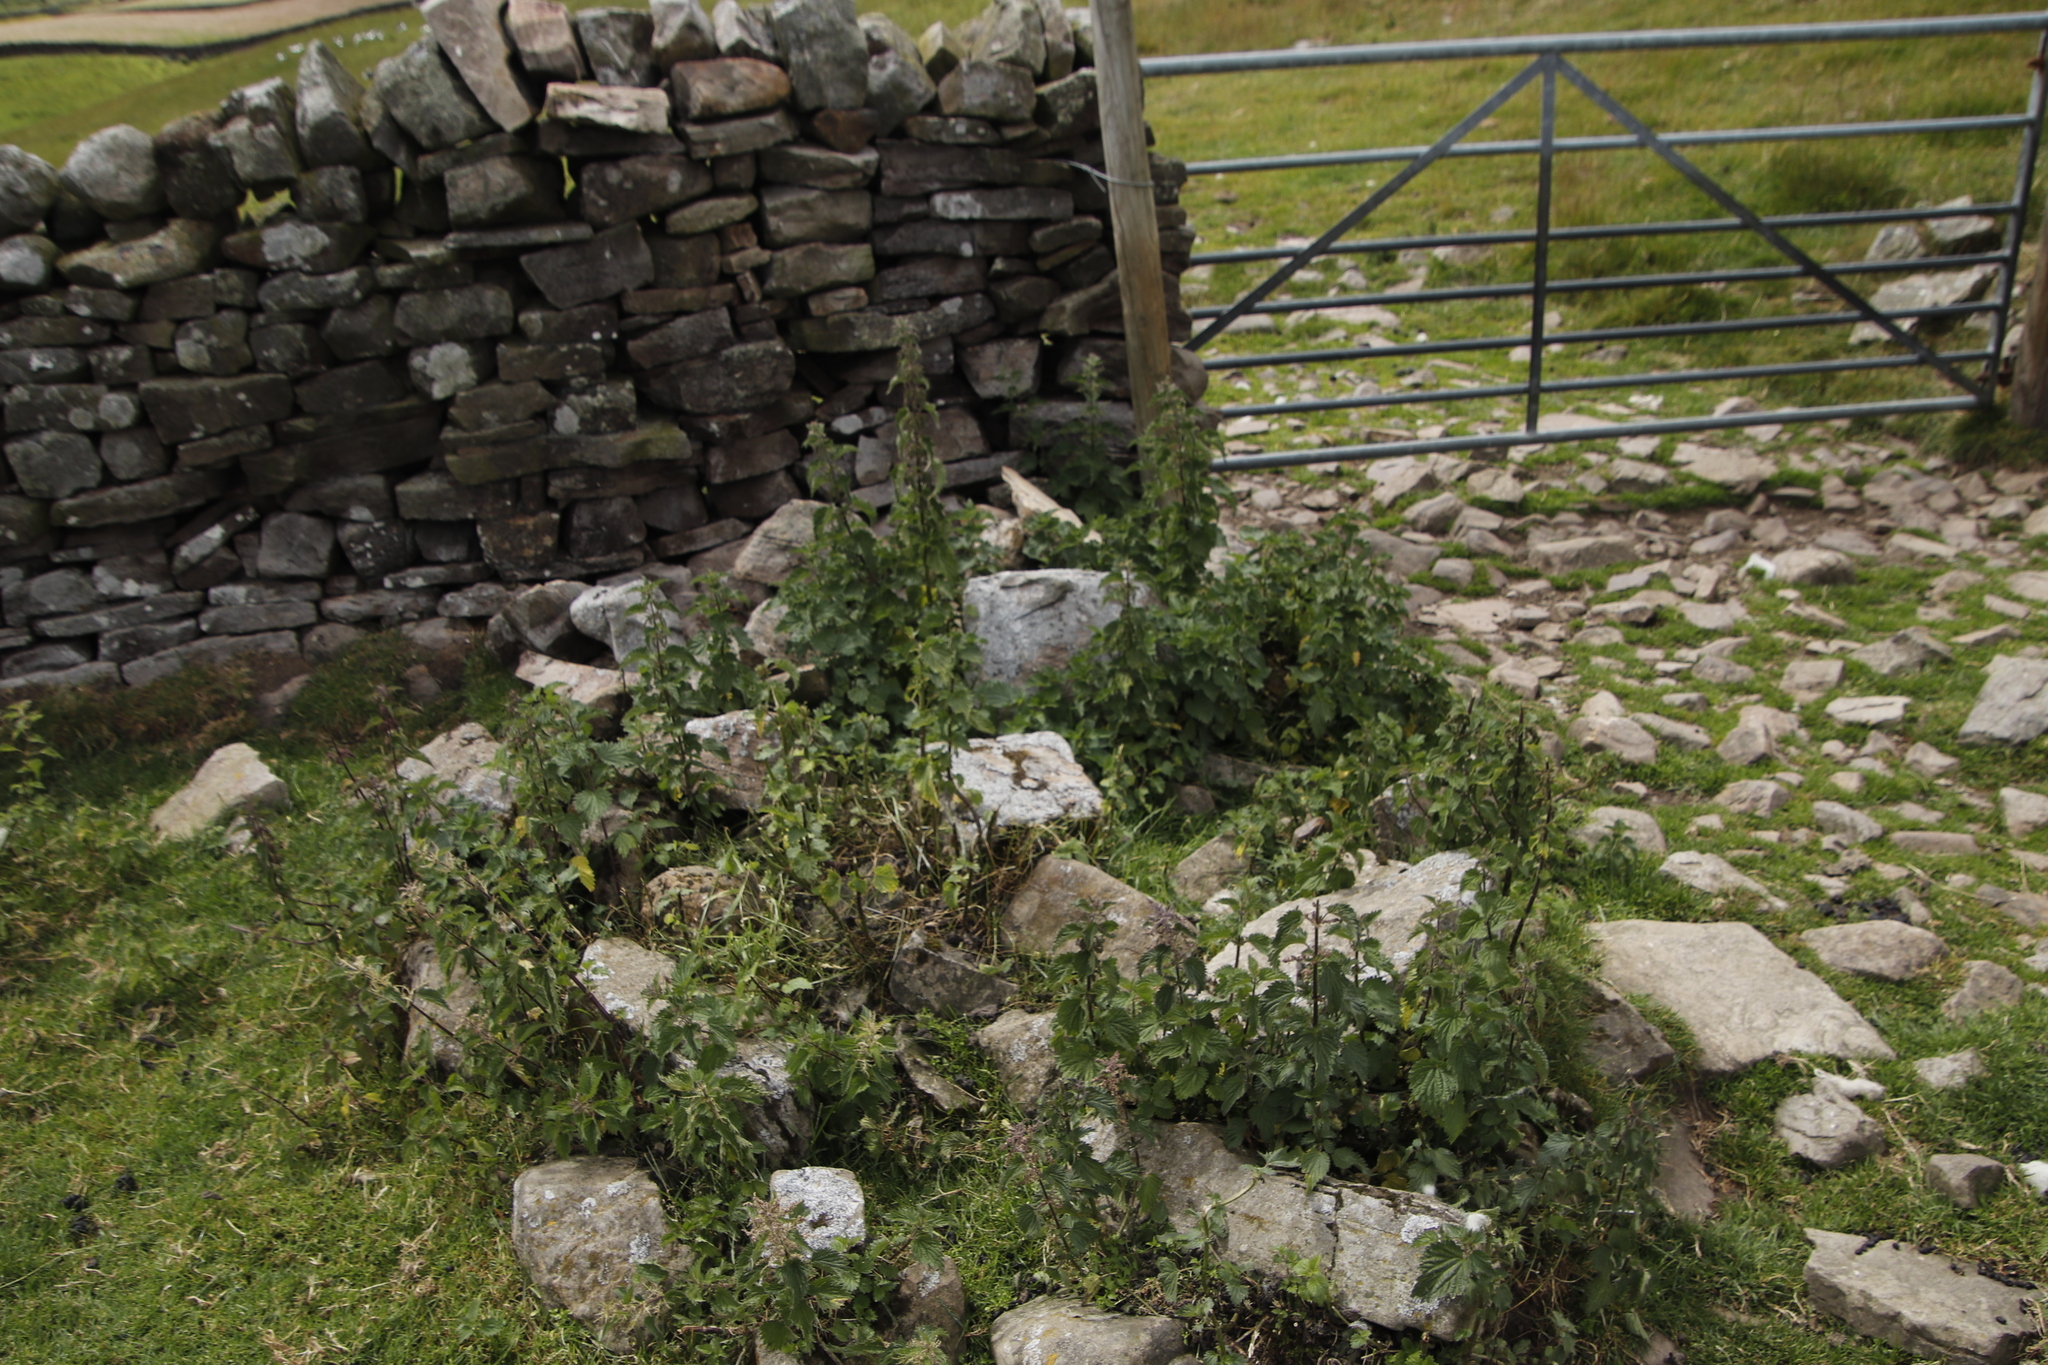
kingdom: Plantae
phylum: Tracheophyta
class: Magnoliopsida
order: Rosales
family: Urticaceae
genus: Urtica
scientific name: Urtica dioica
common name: Common nettle
